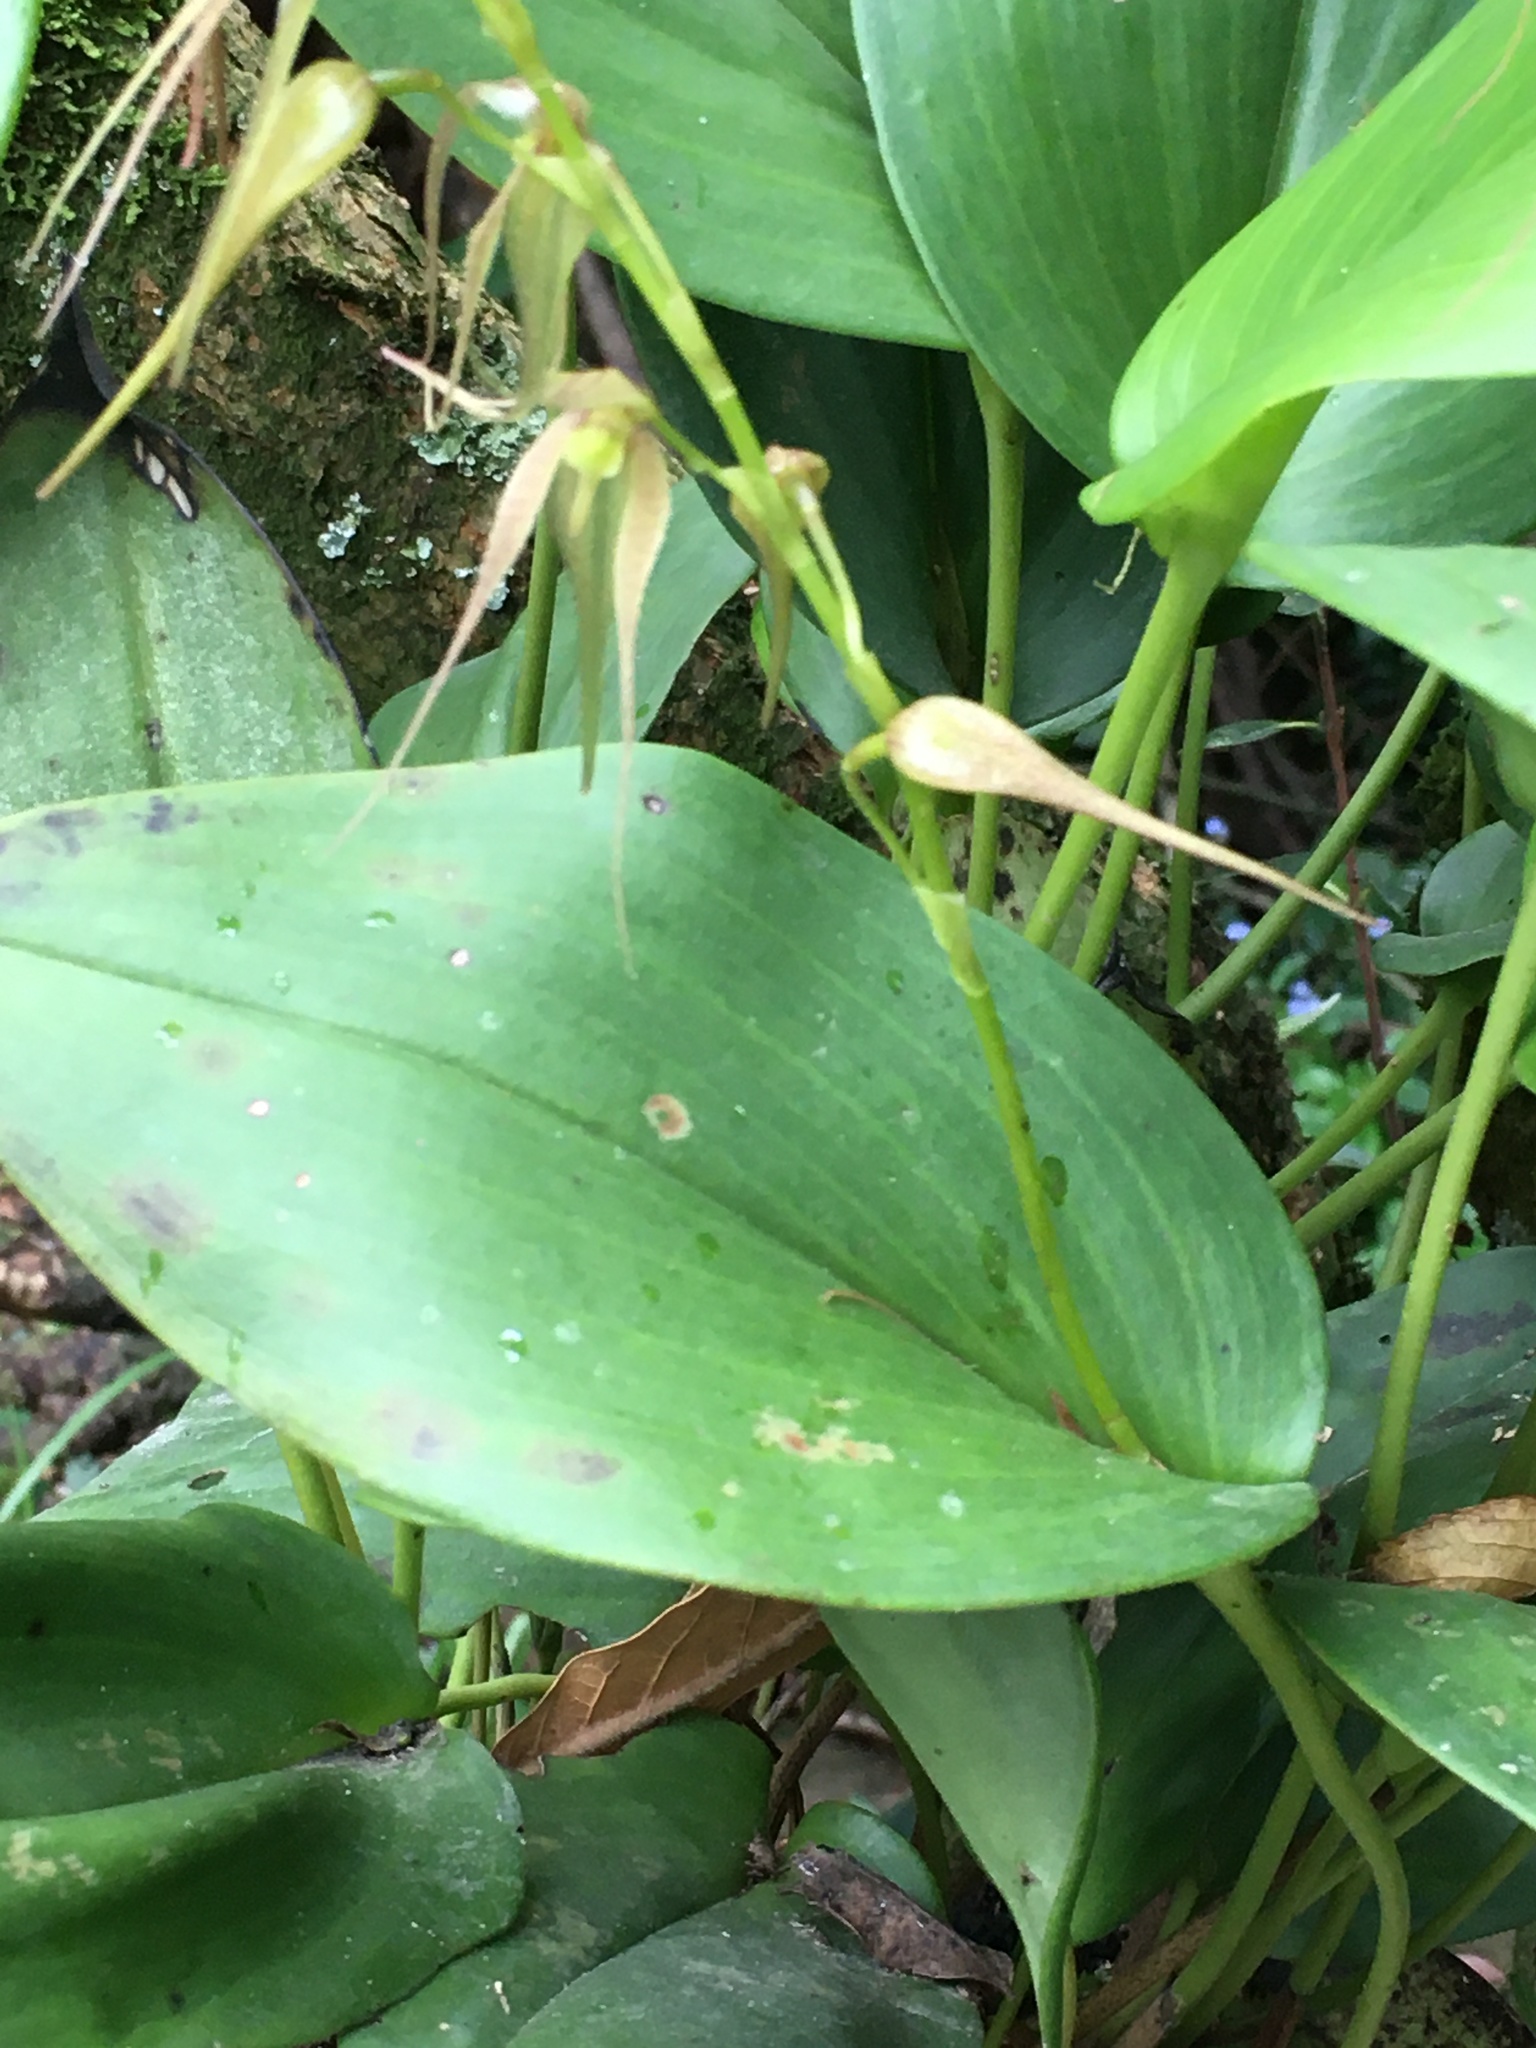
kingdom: Plantae
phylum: Tracheophyta
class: Liliopsida
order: Asparagales
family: Orchidaceae
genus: Pleurothallis
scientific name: Pleurothallis phalangifera
